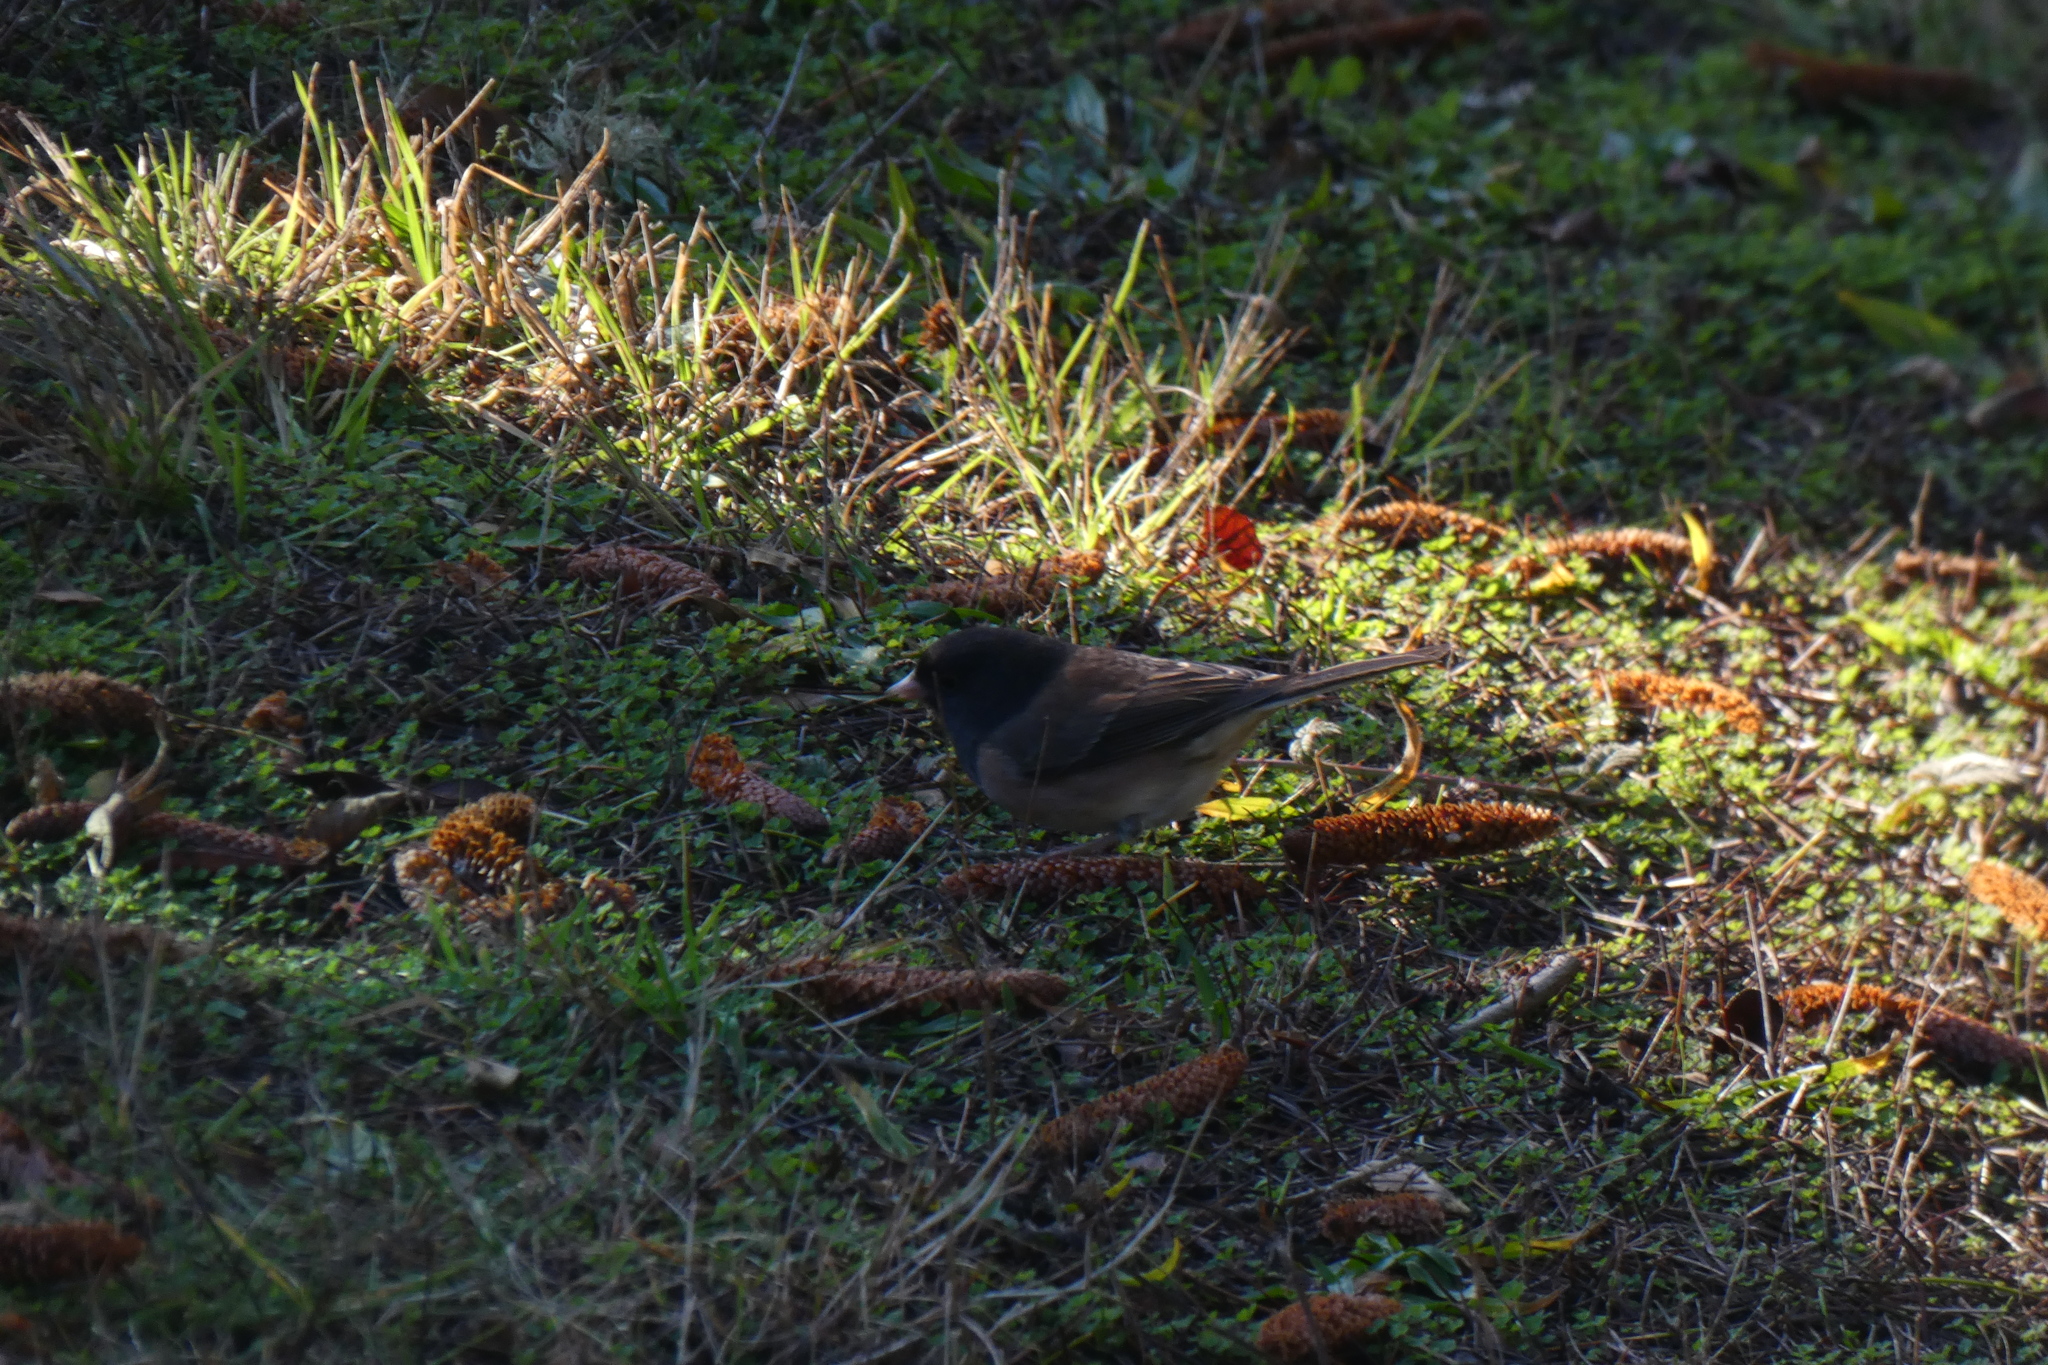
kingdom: Animalia
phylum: Chordata
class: Aves
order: Passeriformes
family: Passerellidae
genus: Junco
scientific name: Junco hyemalis
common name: Dark-eyed junco
